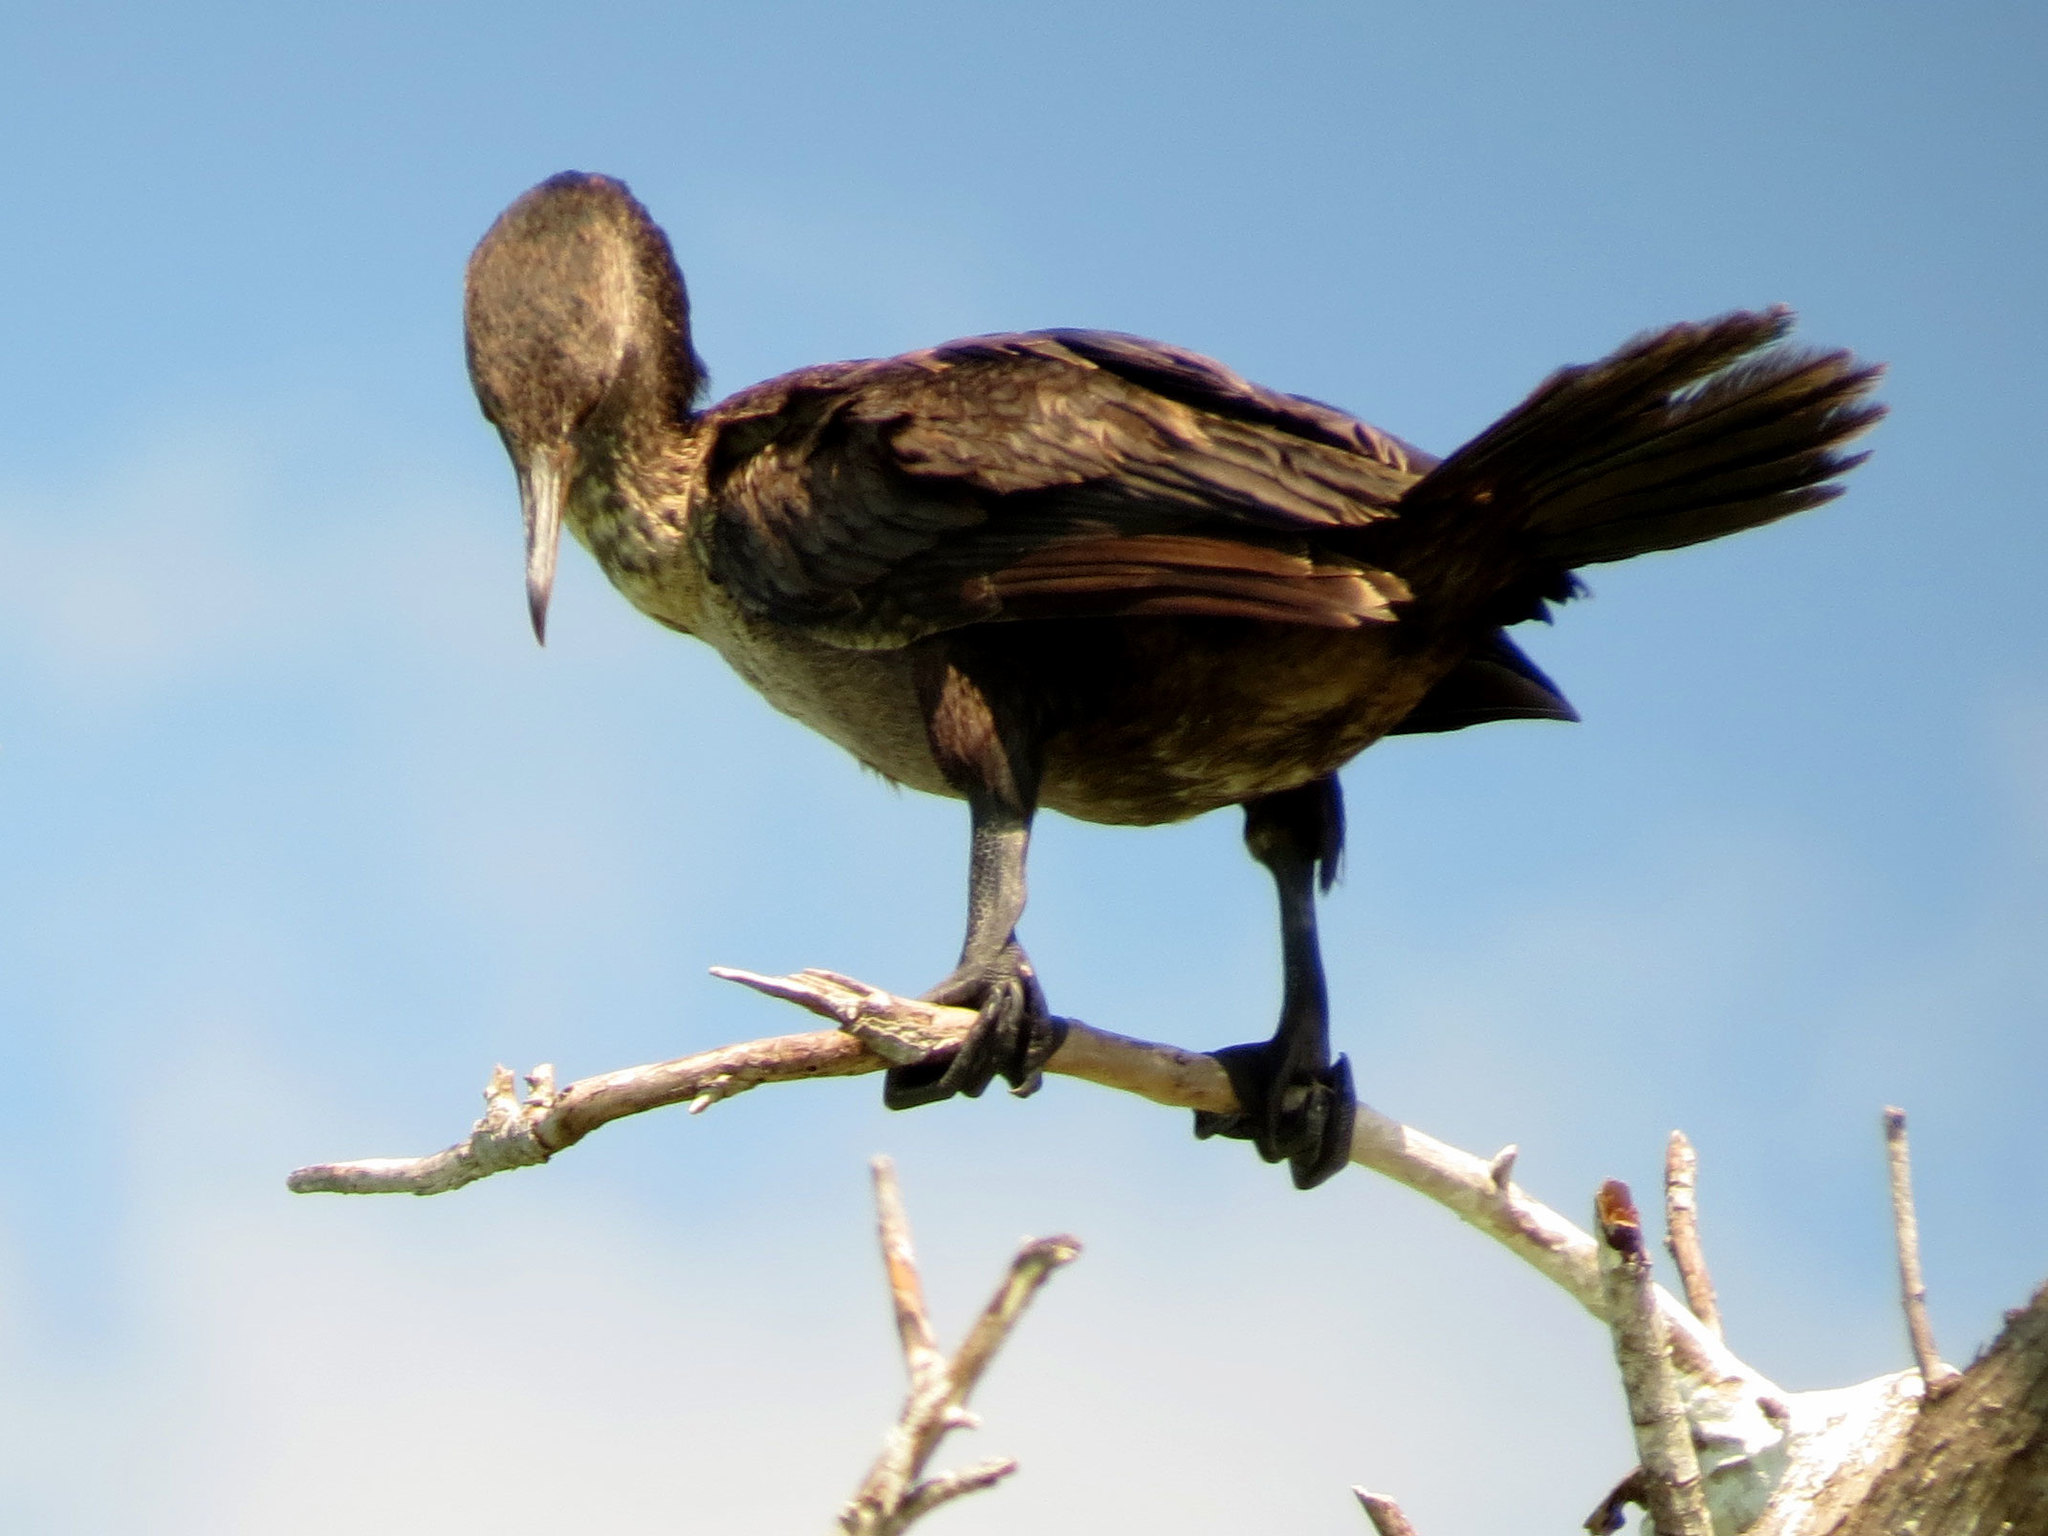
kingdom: Animalia
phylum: Chordata
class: Aves
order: Suliformes
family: Phalacrocoracidae
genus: Phalacrocorax
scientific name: Phalacrocorax auritus
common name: Double-crested cormorant
